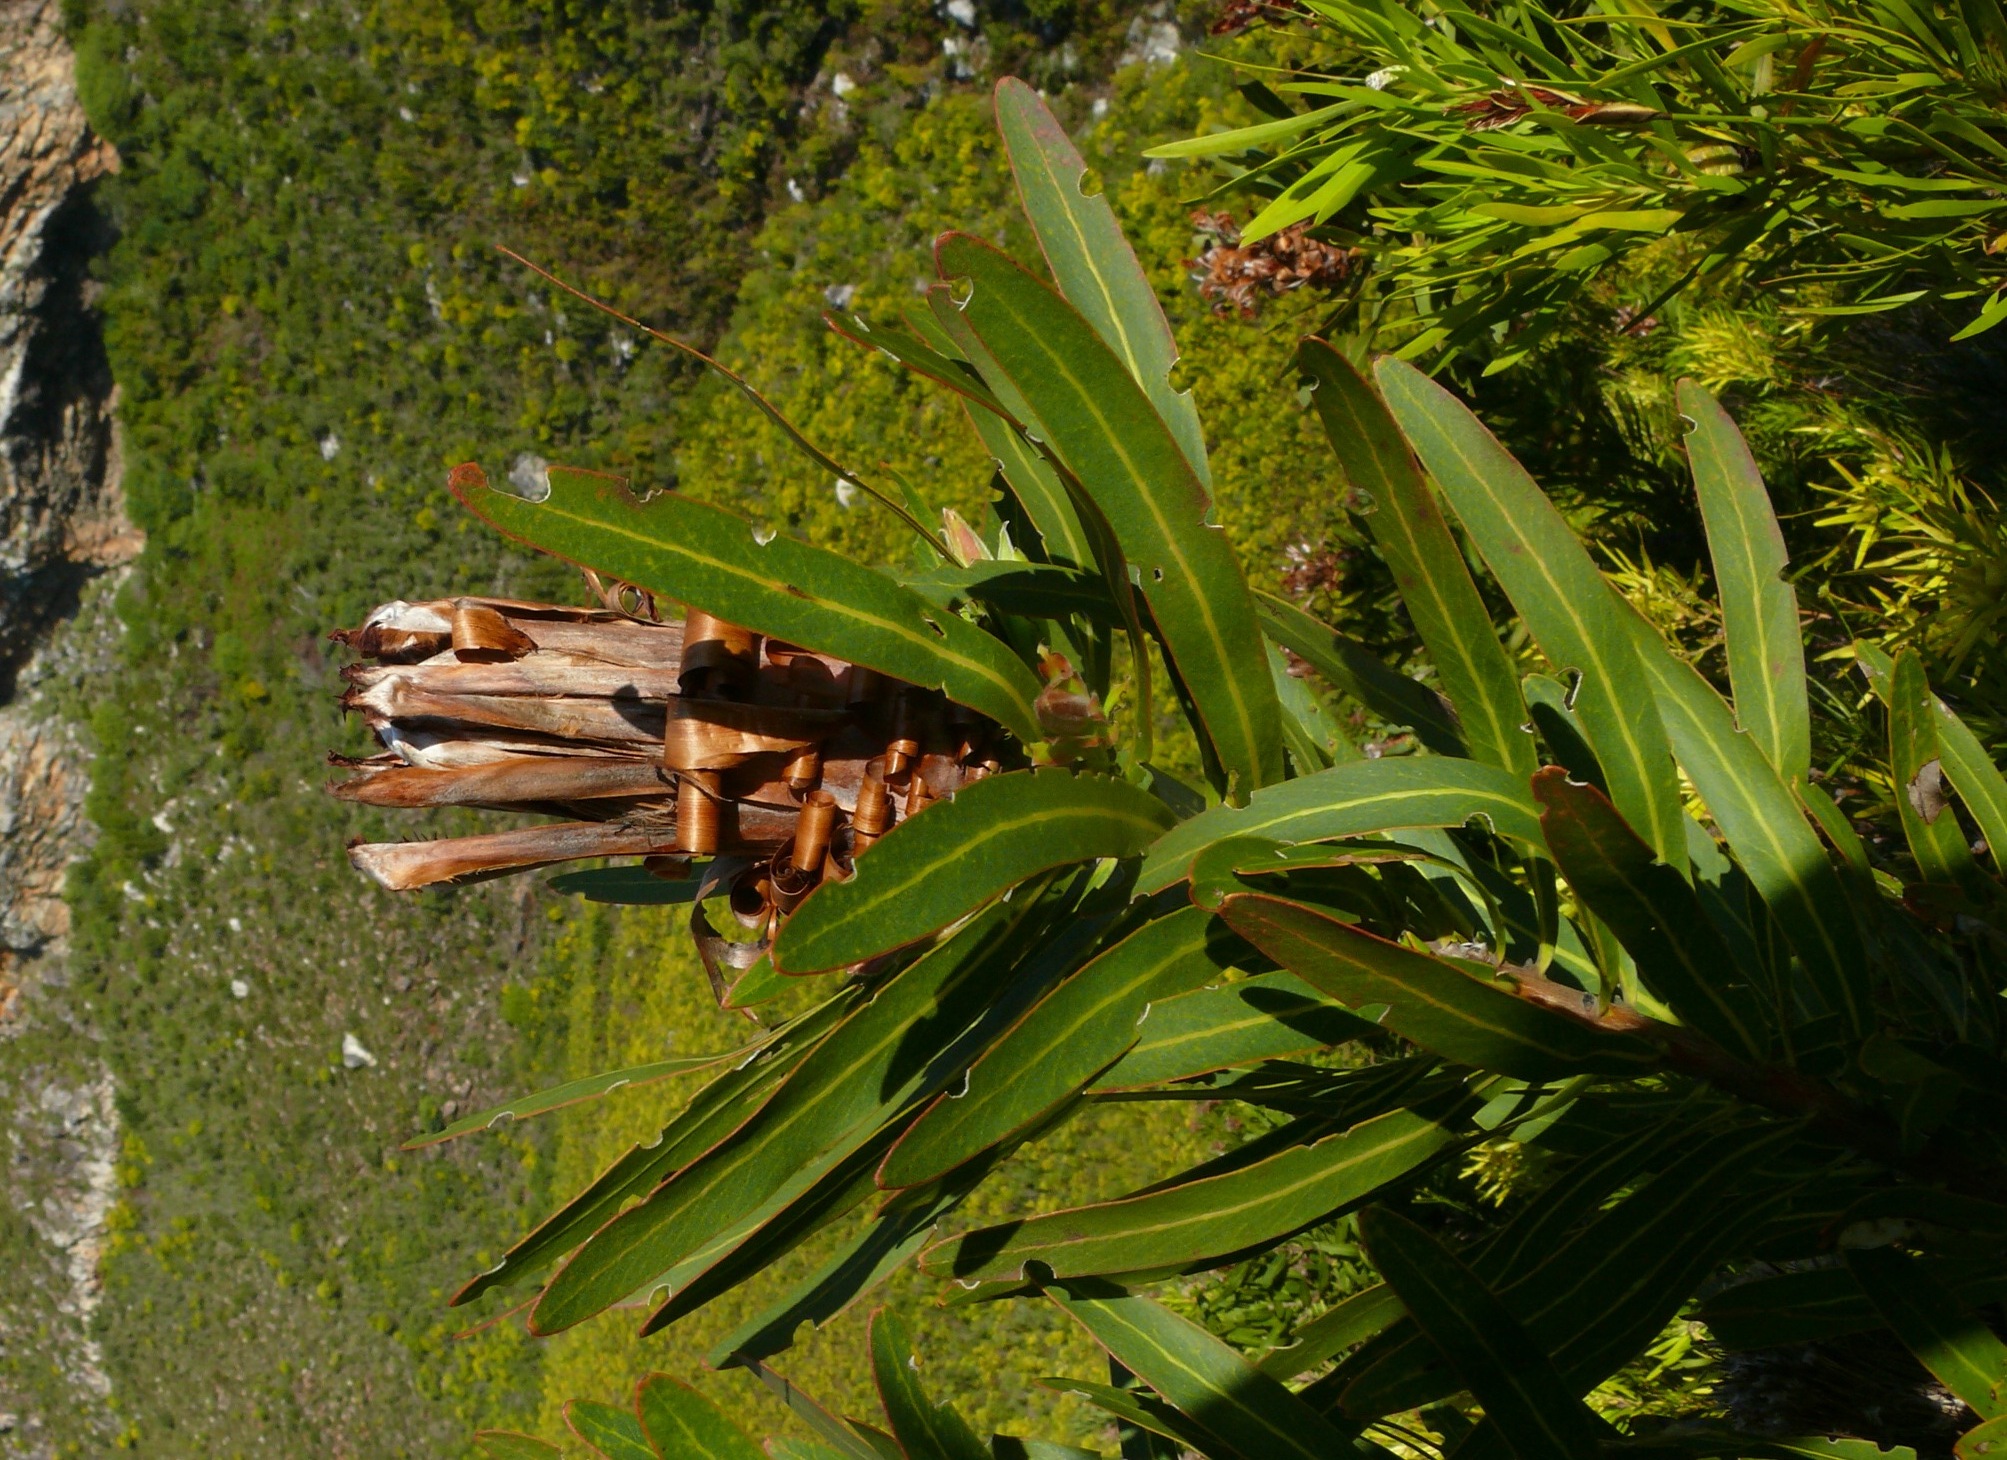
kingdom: Plantae
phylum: Tracheophyta
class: Magnoliopsida
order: Proteales
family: Proteaceae
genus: Protea
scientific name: Protea neriifolia
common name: Blue sugarbush
